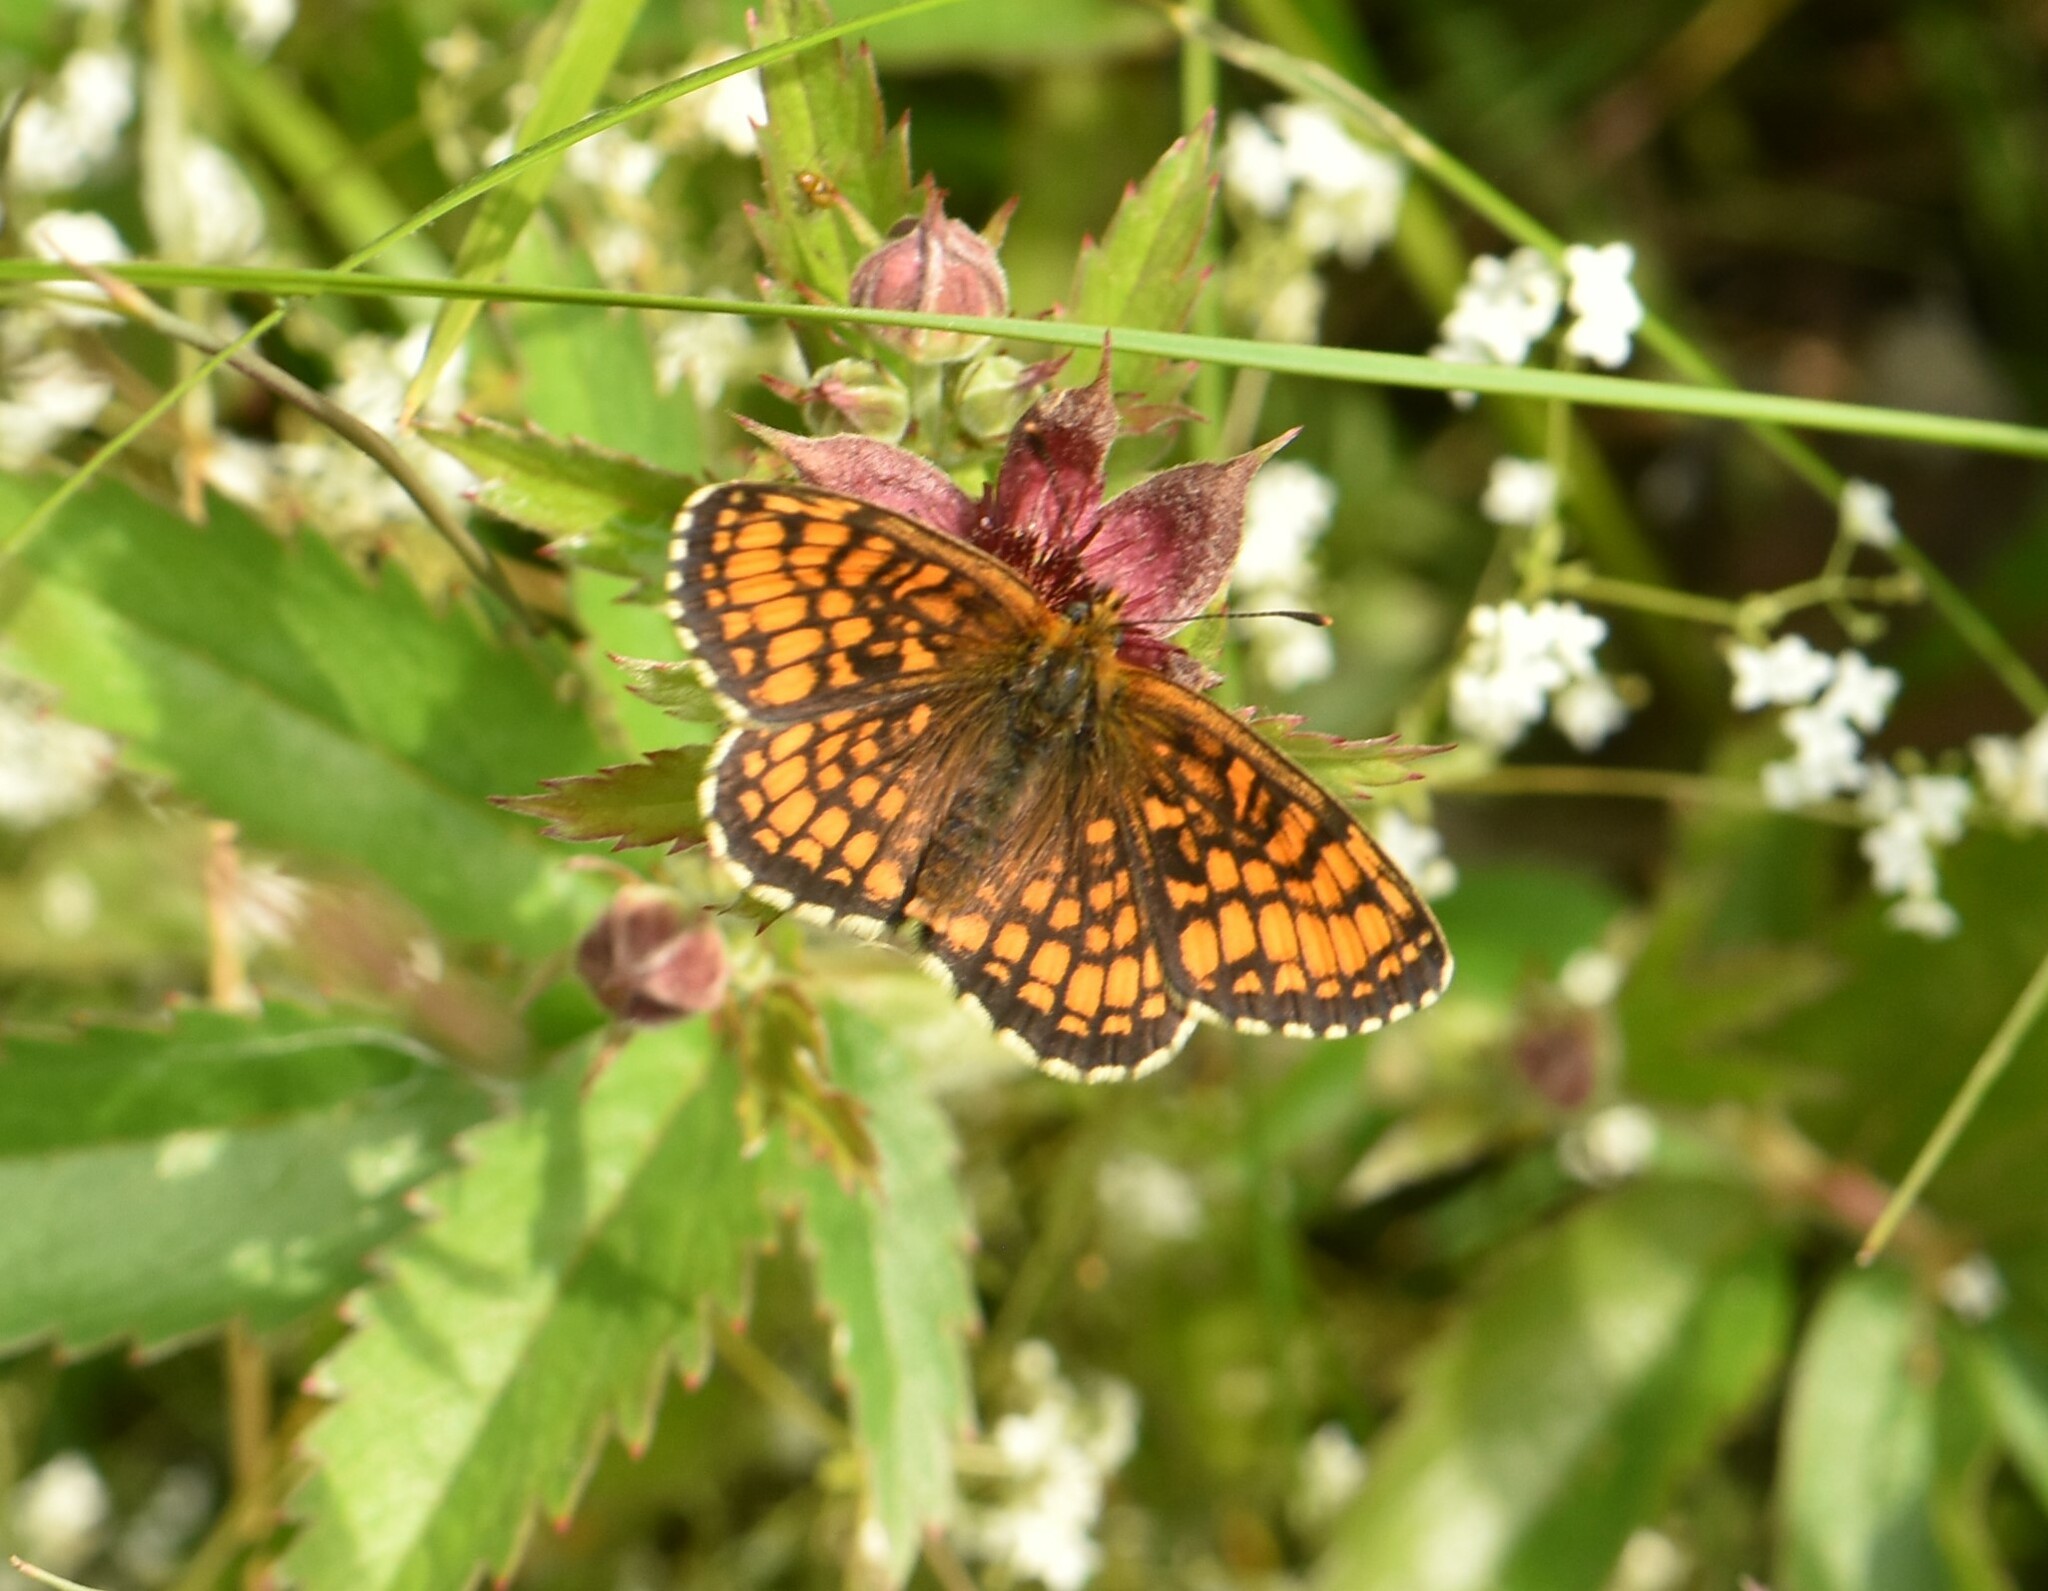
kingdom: Animalia
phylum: Arthropoda
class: Insecta
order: Lepidoptera
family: Nymphalidae
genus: Melitaea
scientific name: Melitaea athalia
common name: Heath fritillary
